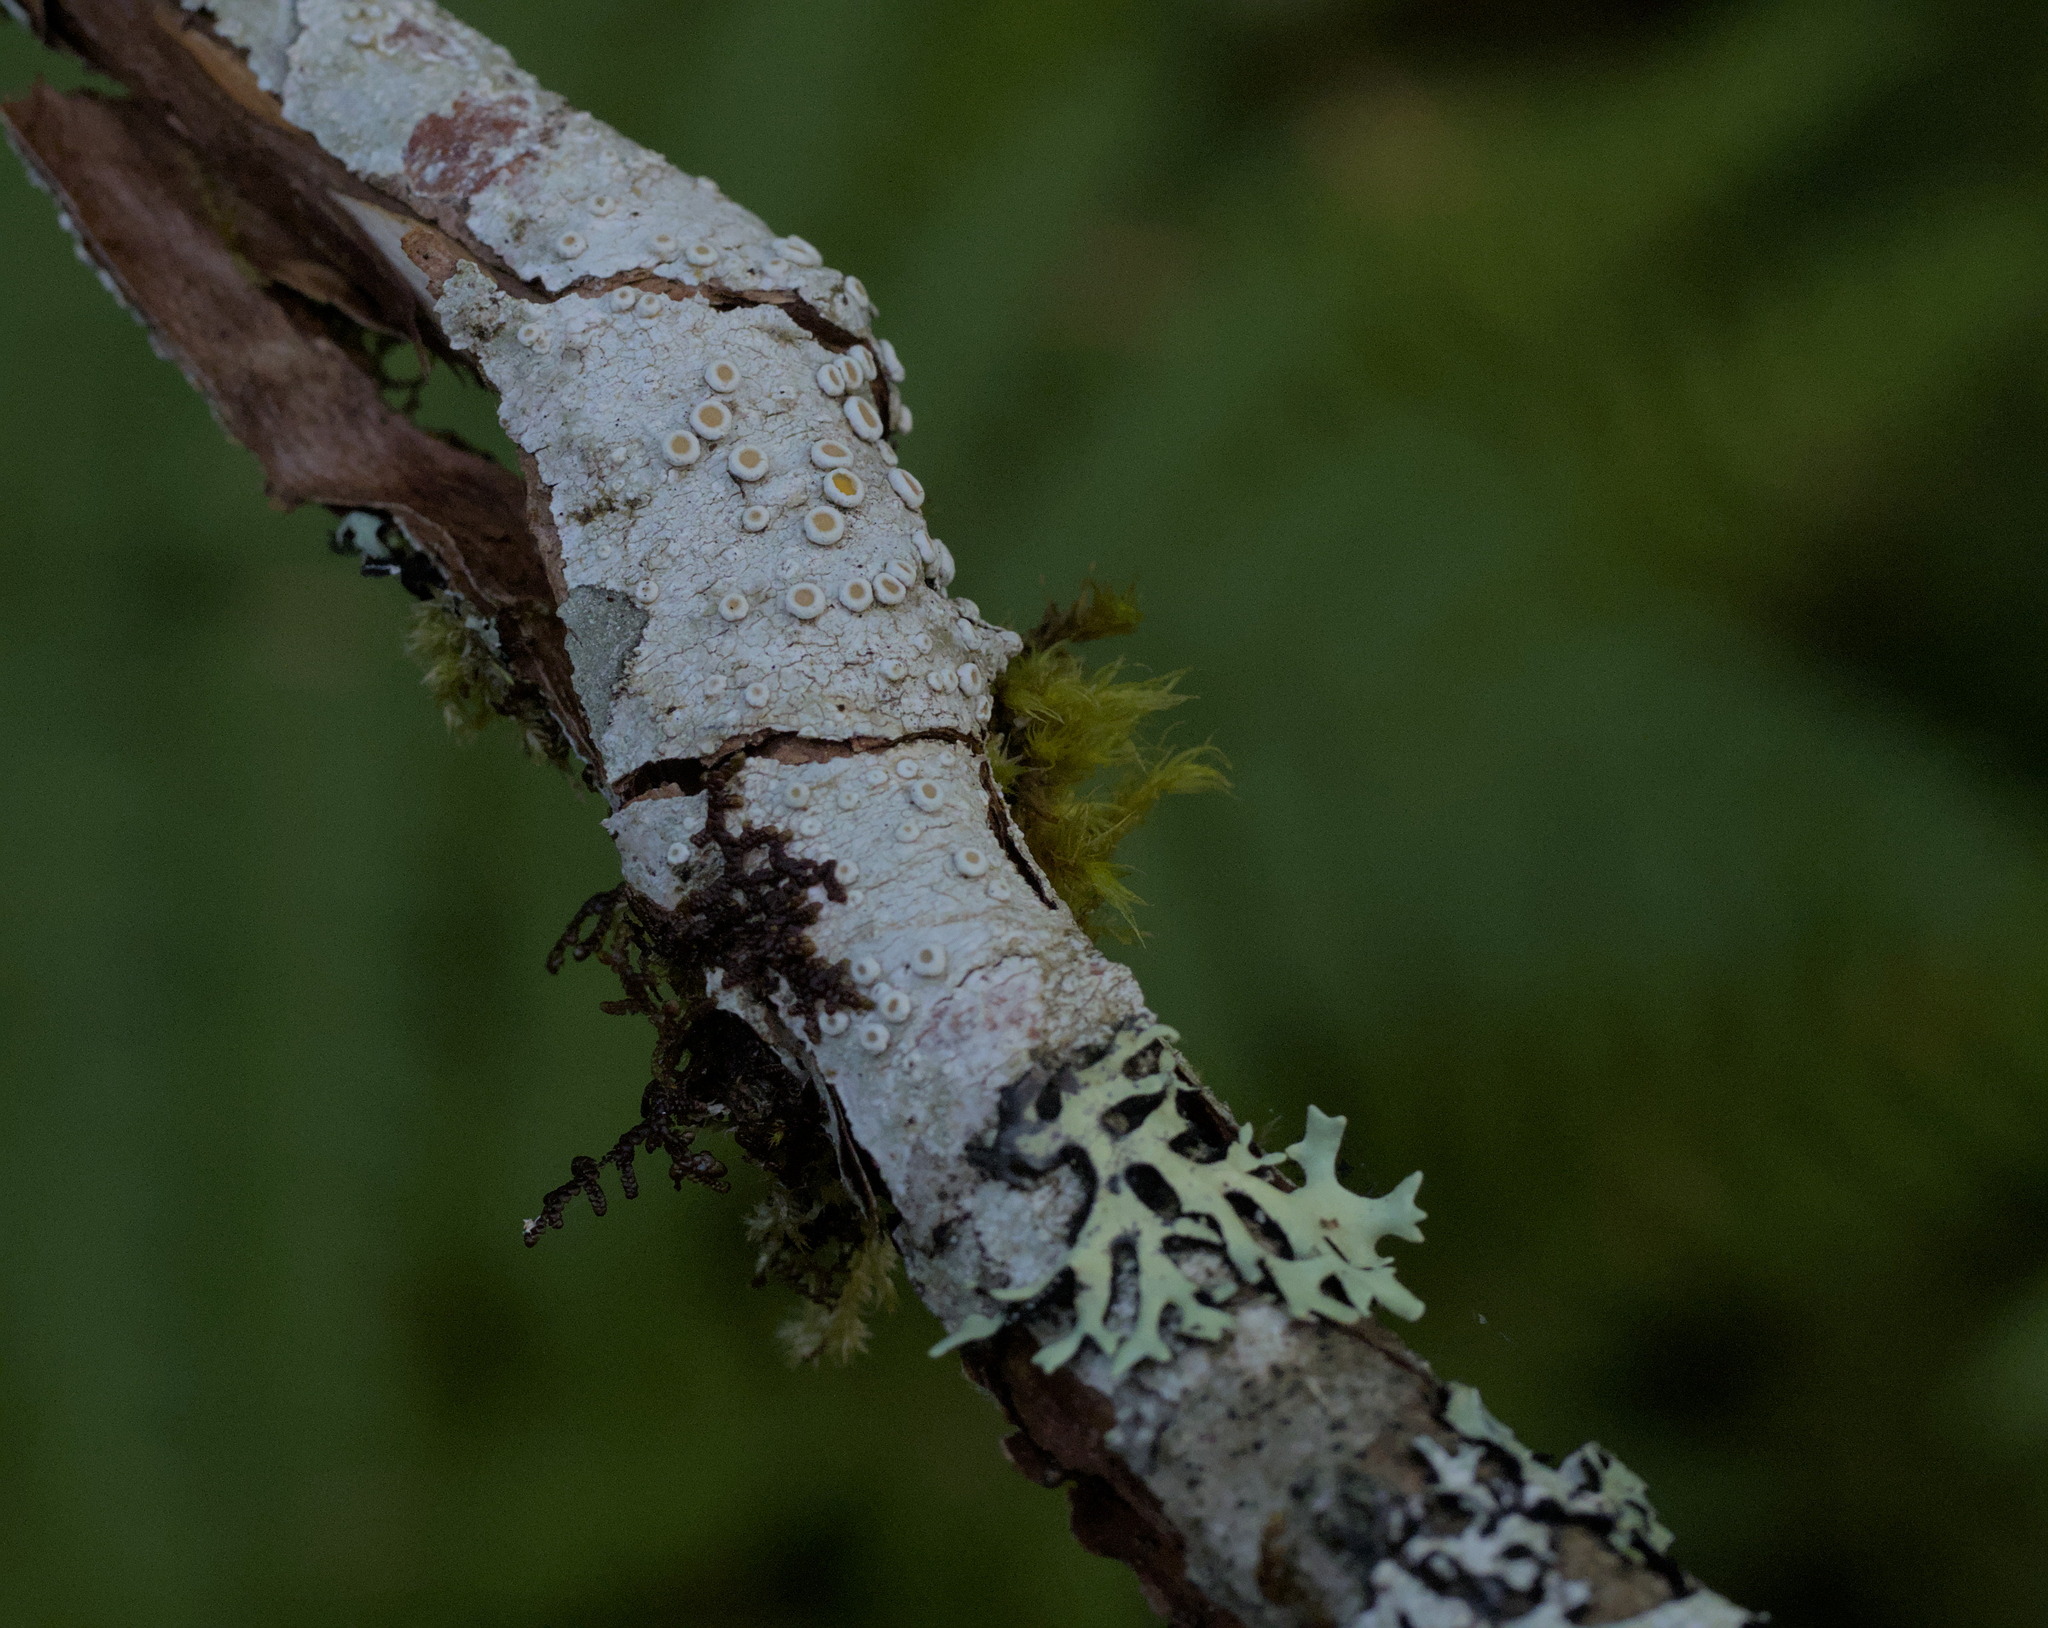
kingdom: Fungi
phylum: Ascomycota
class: Lecanoromycetes
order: Lecanorales
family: Parmeliaceae
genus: Hypotrachyna
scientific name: Hypotrachyna sinuosa
